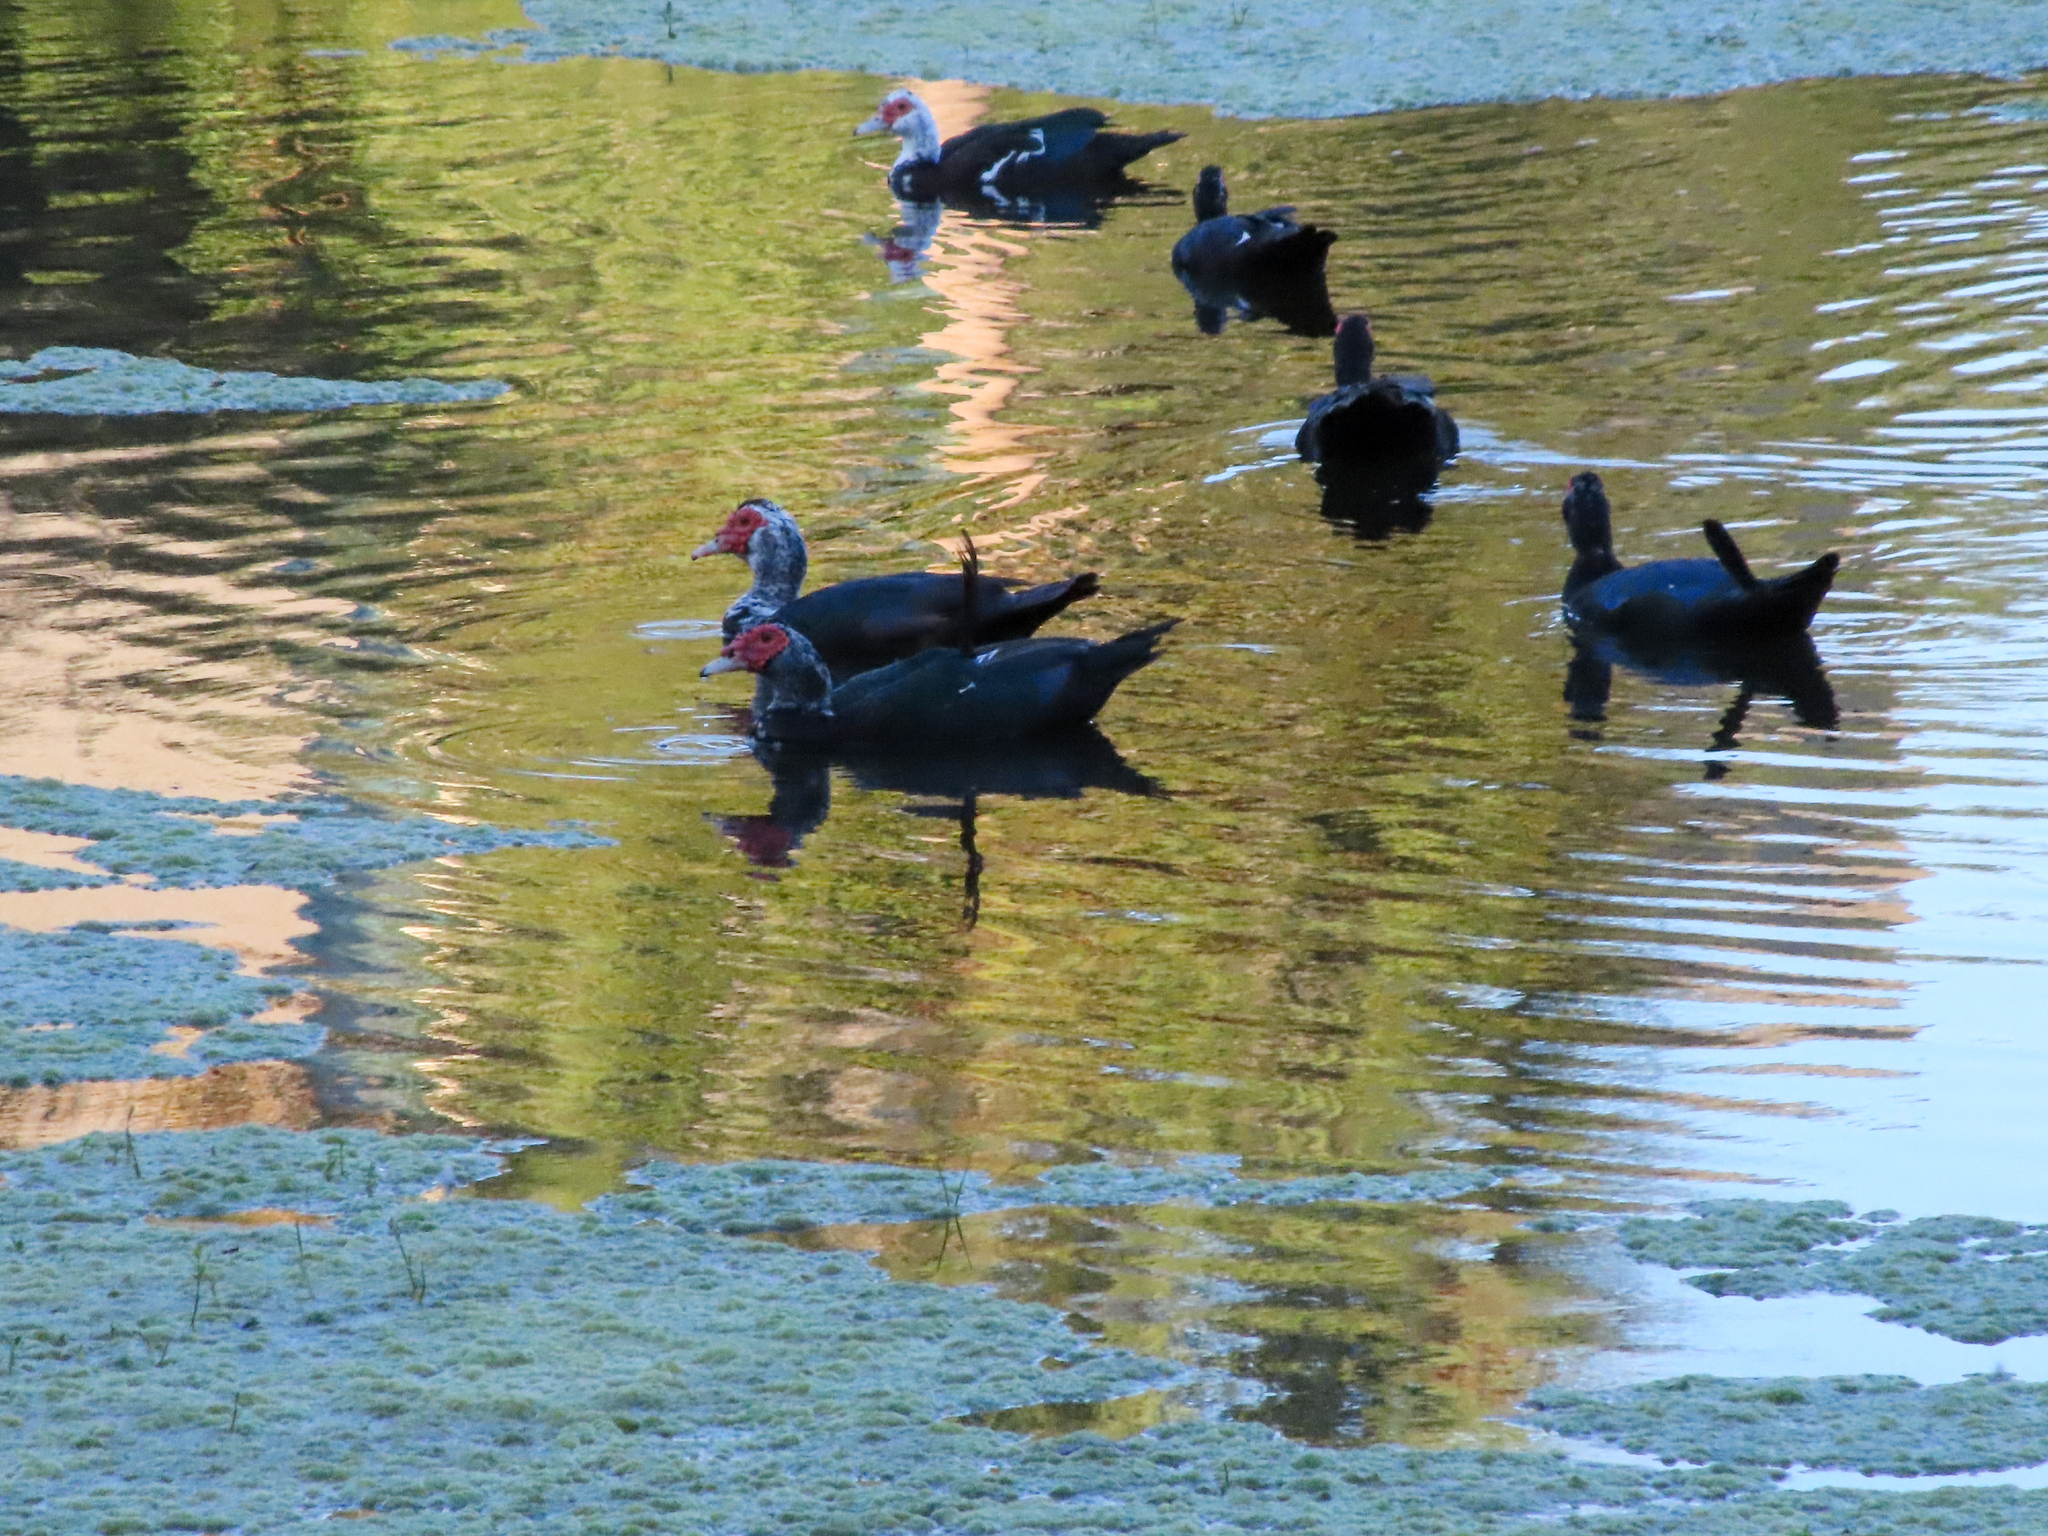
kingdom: Animalia
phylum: Chordata
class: Aves
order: Anseriformes
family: Anatidae
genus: Cairina
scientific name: Cairina moschata
